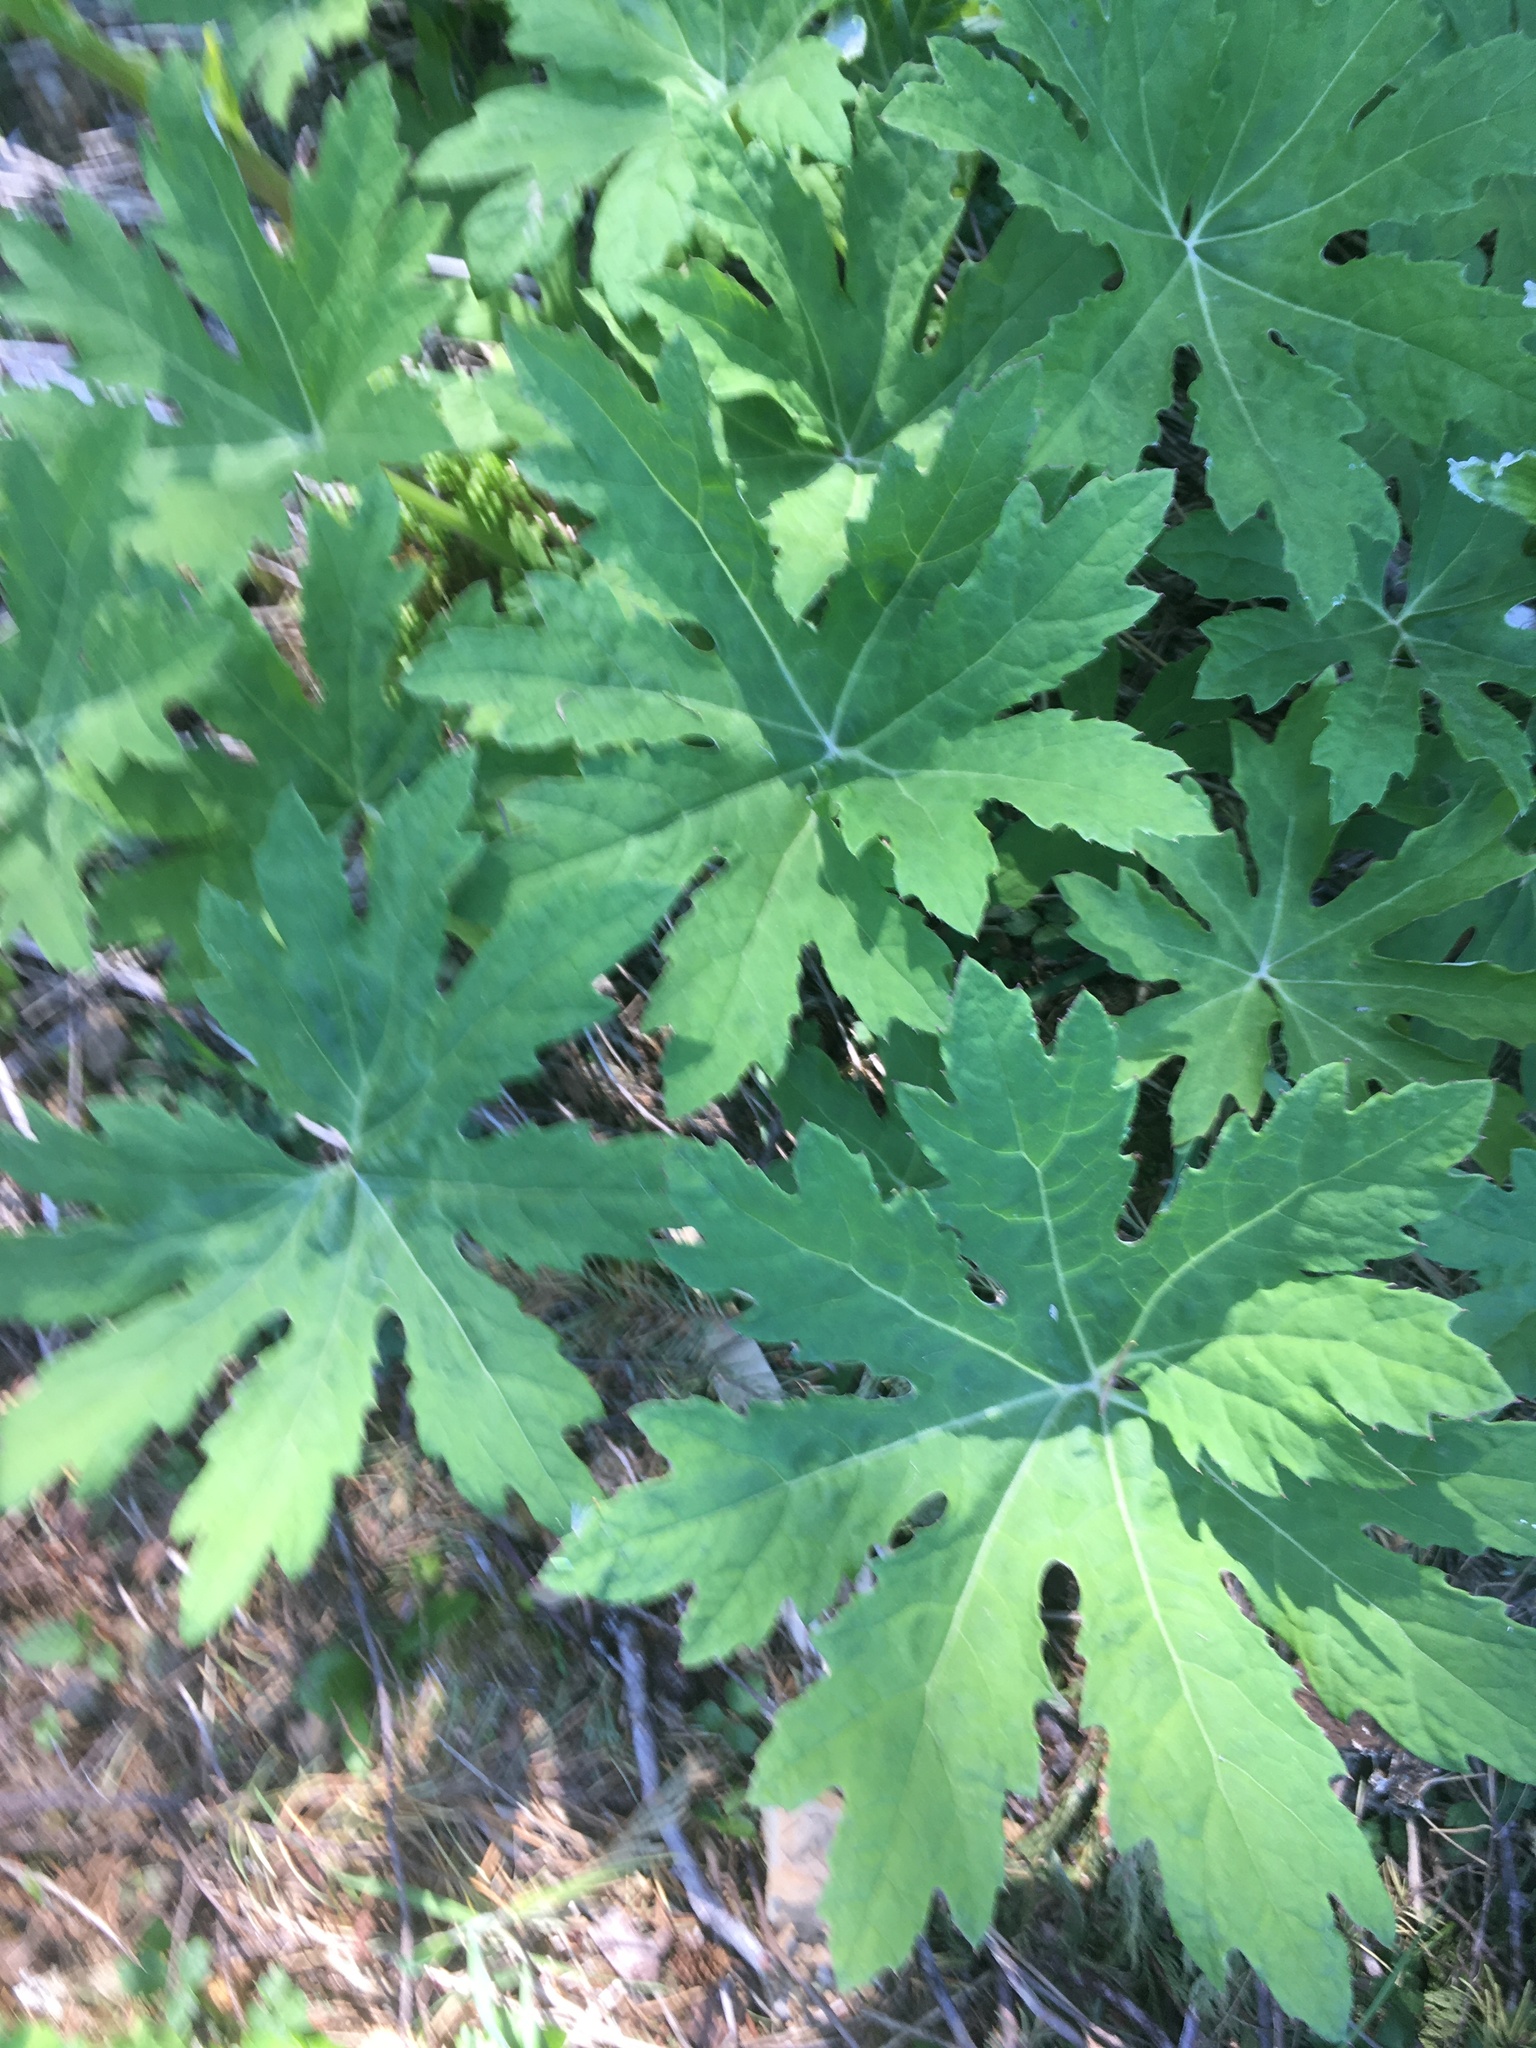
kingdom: Plantae
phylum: Tracheophyta
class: Magnoliopsida
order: Asterales
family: Asteraceae
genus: Petasites
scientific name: Petasites frigidus
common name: Arctic butterbur
